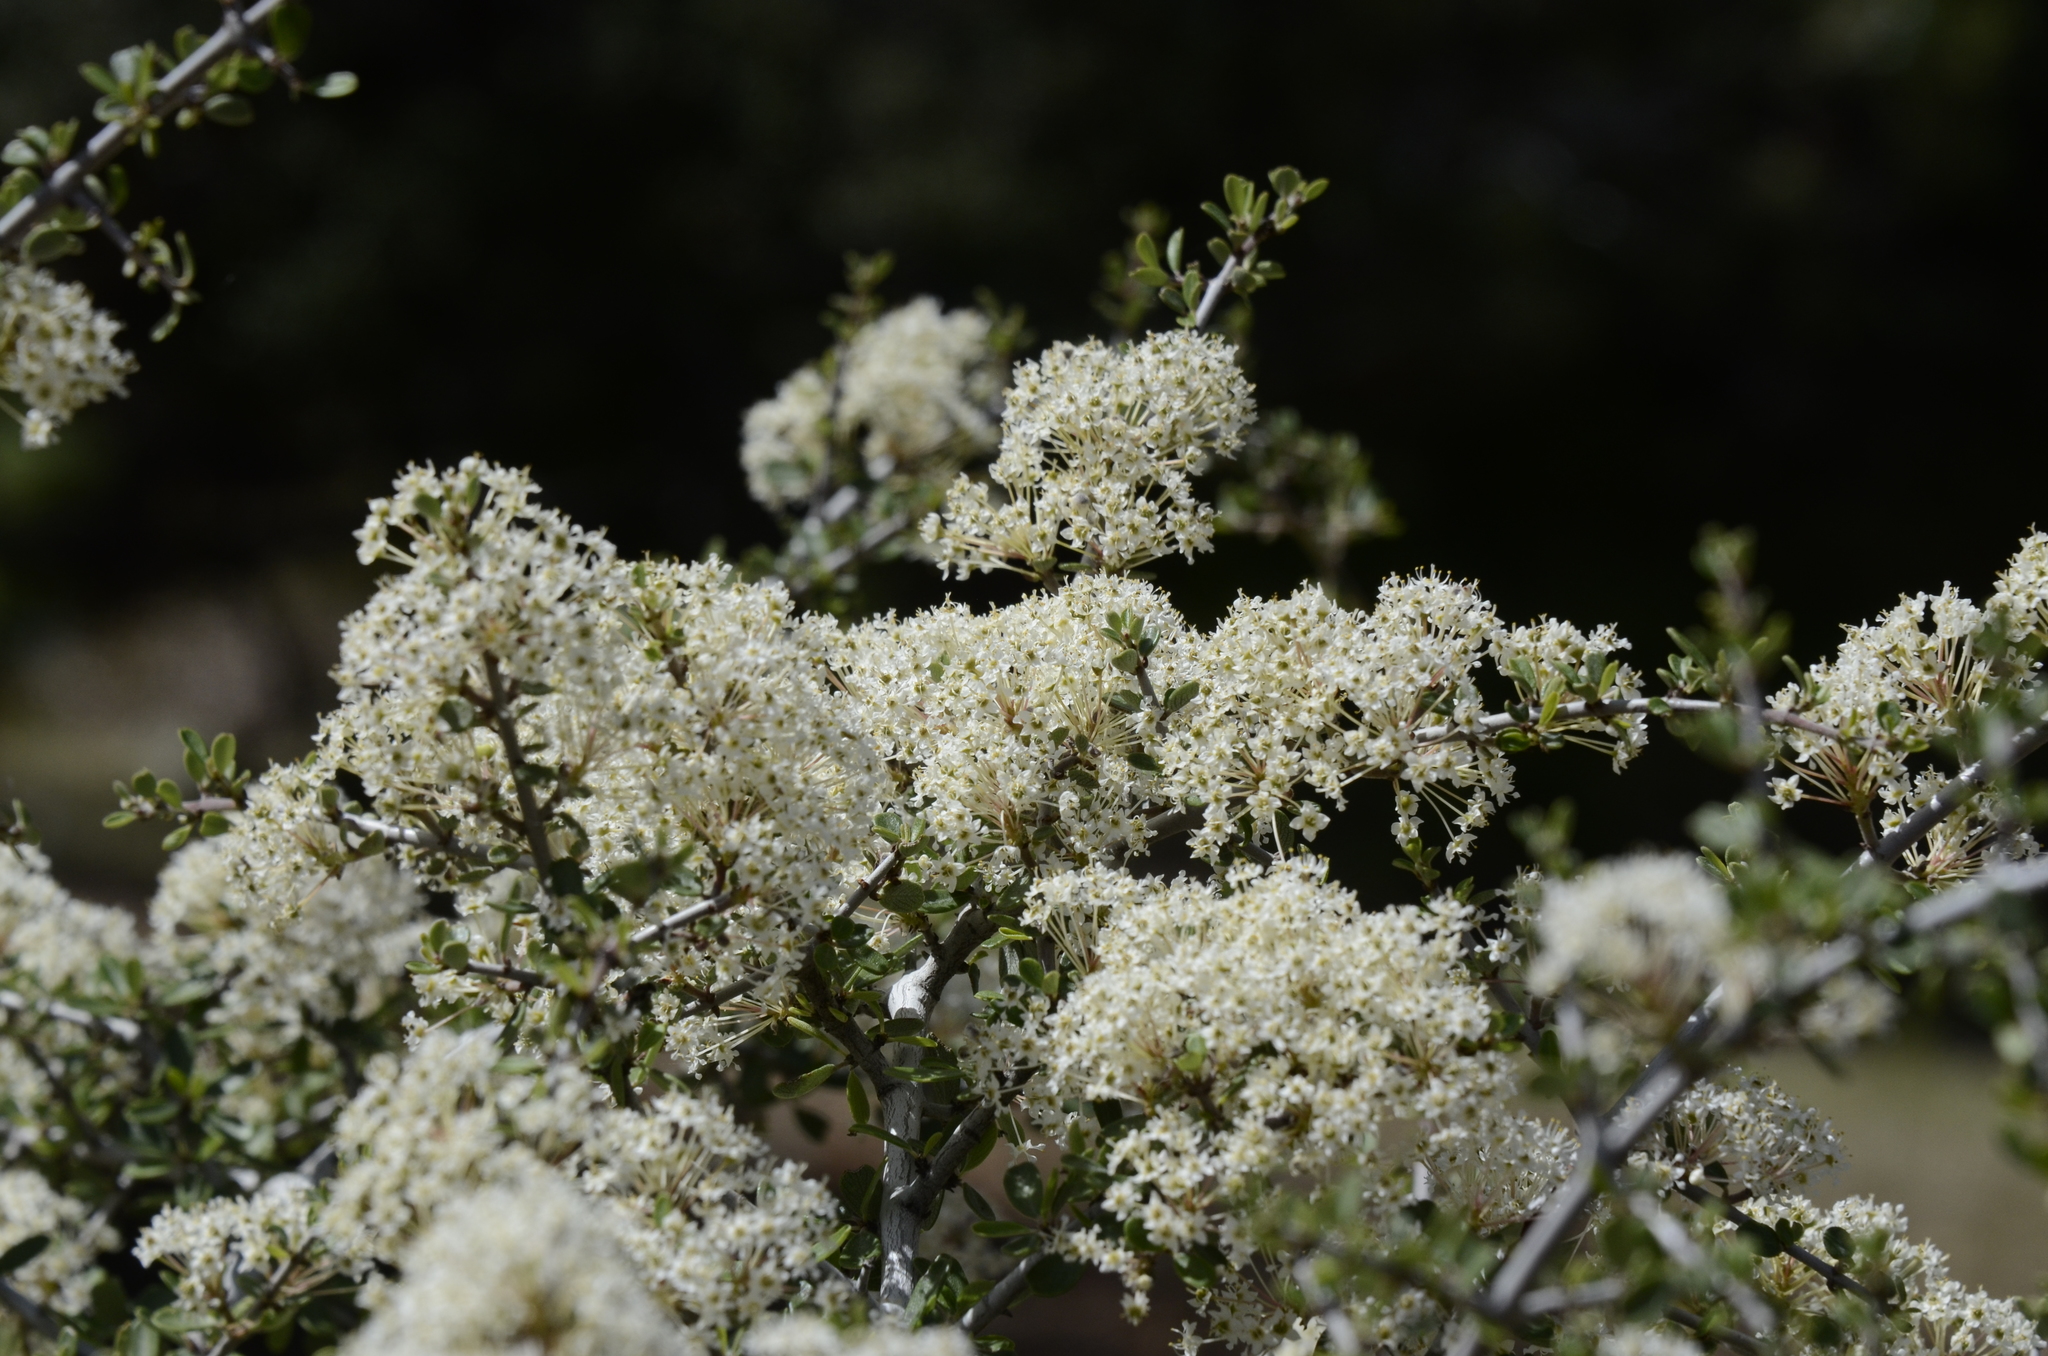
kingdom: Plantae
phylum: Tracheophyta
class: Magnoliopsida
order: Rosales
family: Rhamnaceae
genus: Ceanothus
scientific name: Ceanothus cuneatus
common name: Cuneate ceanothus
